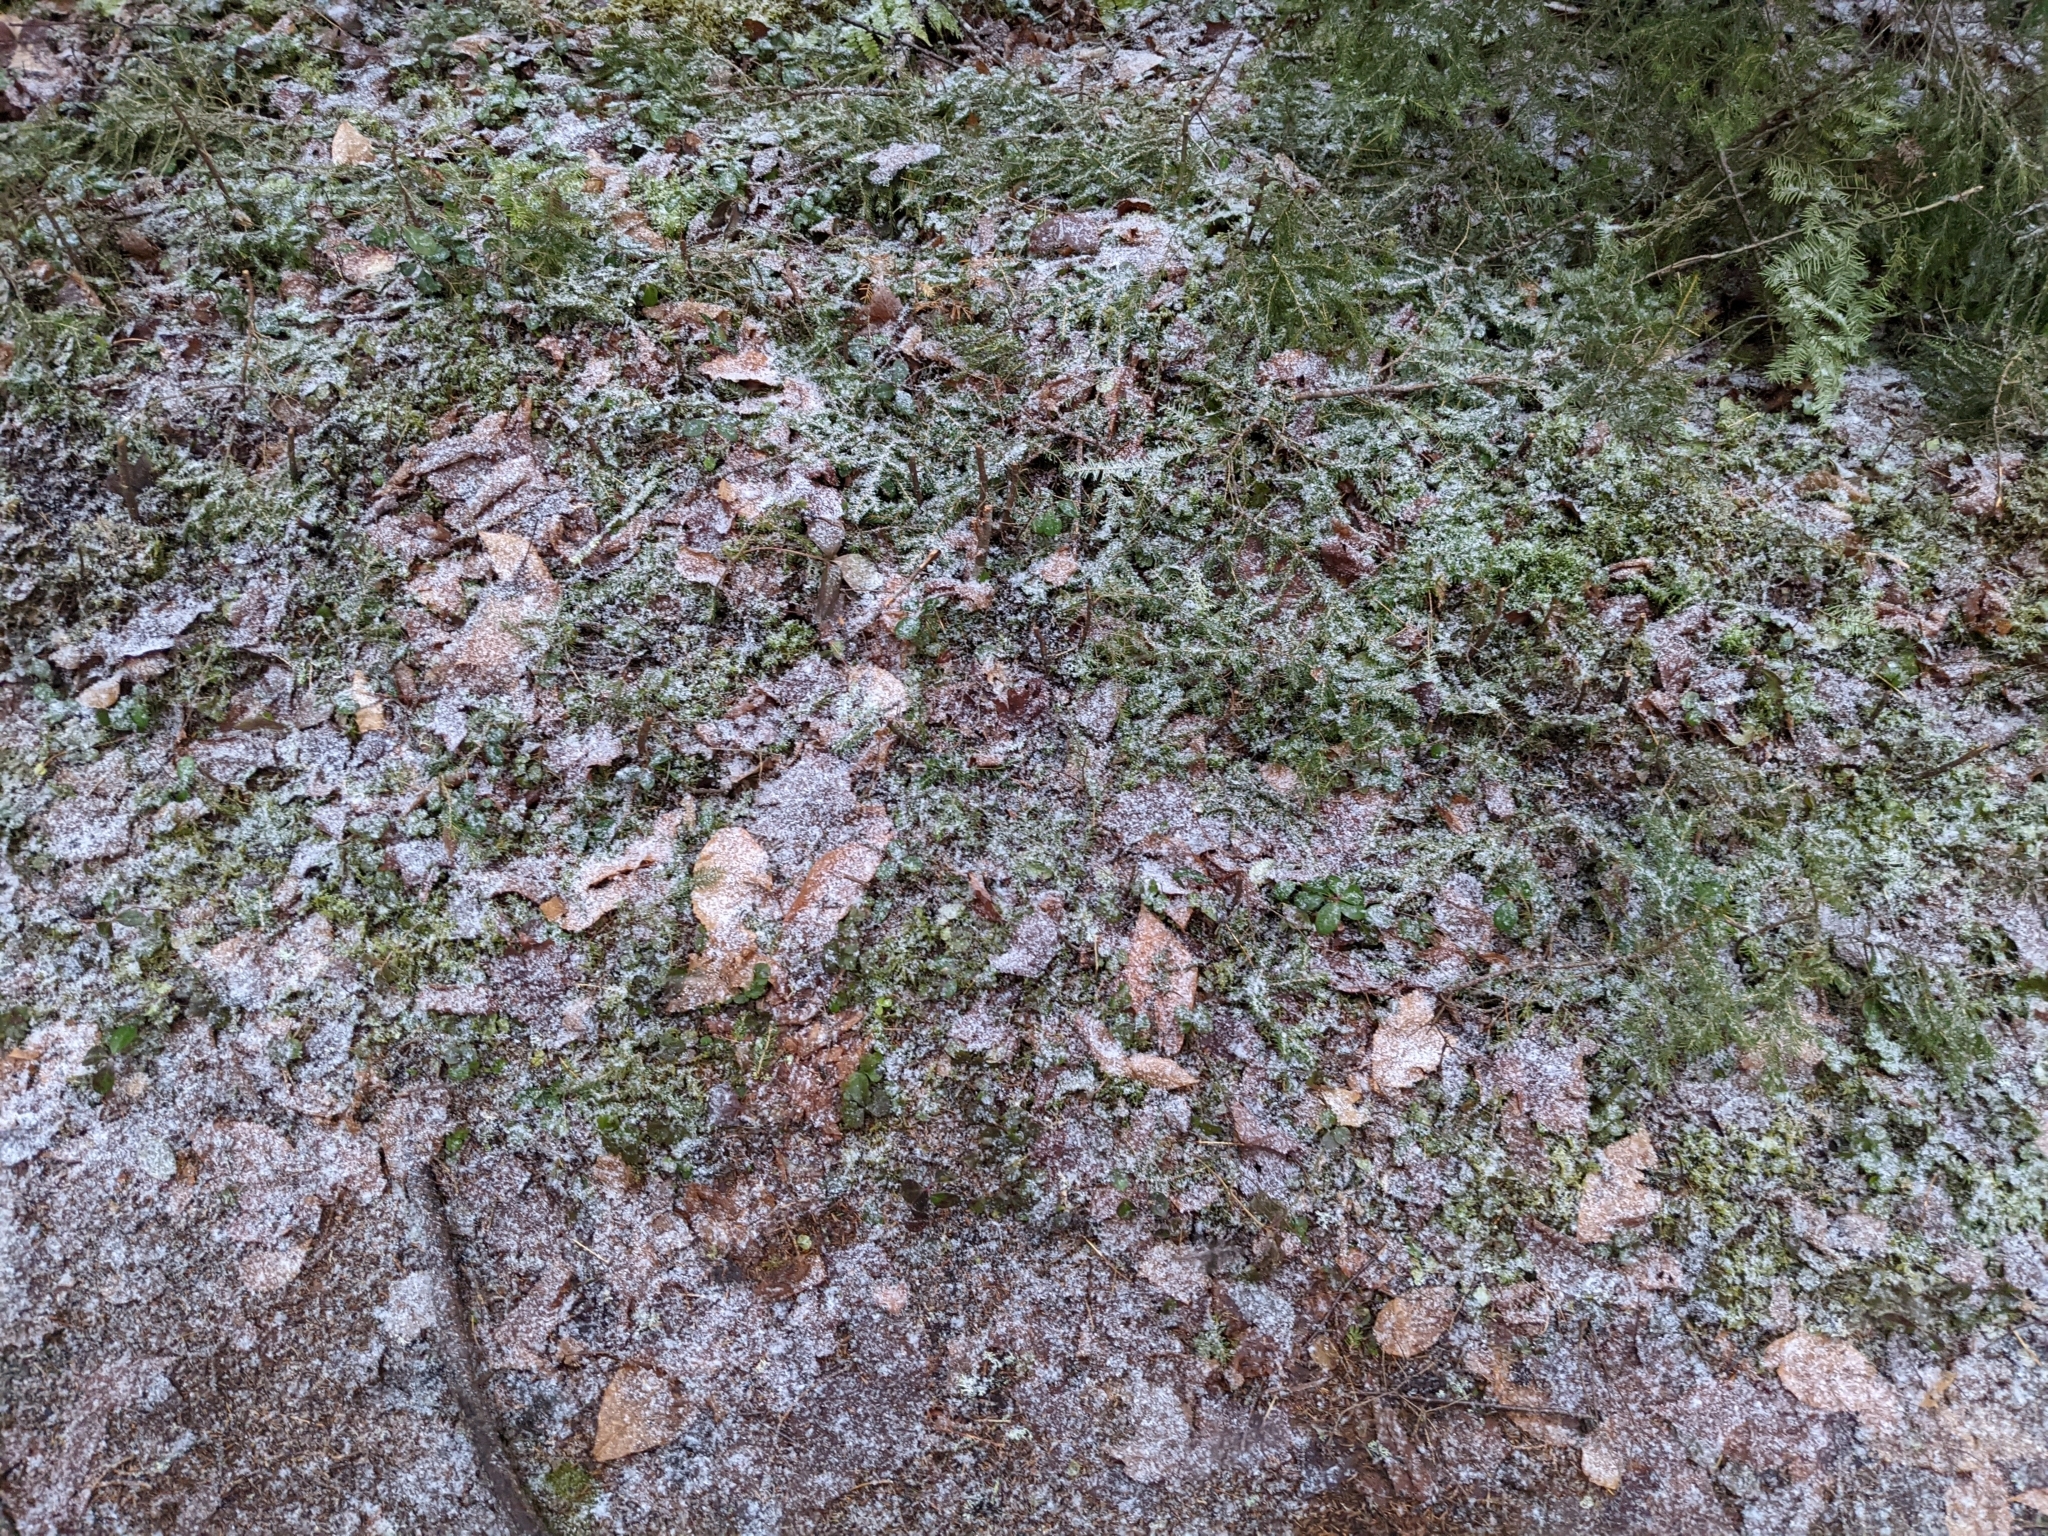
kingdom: Plantae
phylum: Tracheophyta
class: Magnoliopsida
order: Ericales
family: Ericaceae
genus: Gaultheria
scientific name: Gaultheria procumbens
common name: Checkerberry
